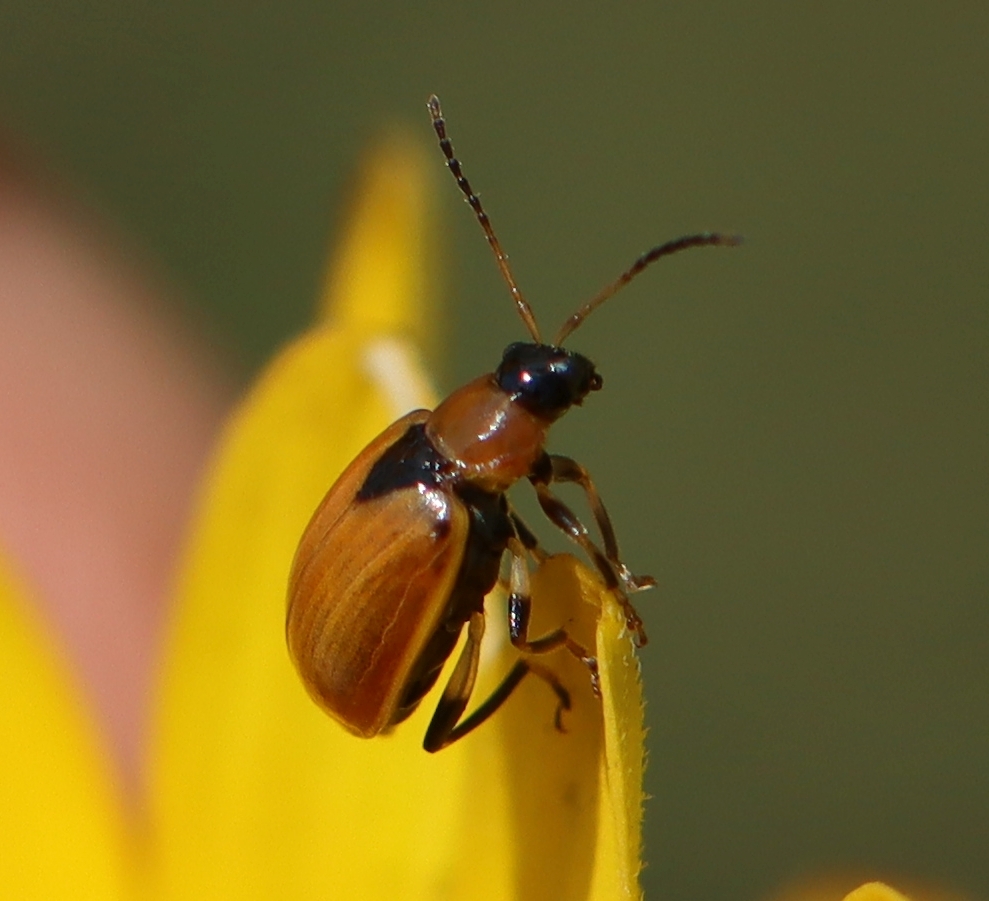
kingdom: Animalia
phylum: Arthropoda
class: Insecta
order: Coleoptera
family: Chrysomelidae
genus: Cerotoma
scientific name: Cerotoma trifurcata
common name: Bean leaf beetle
